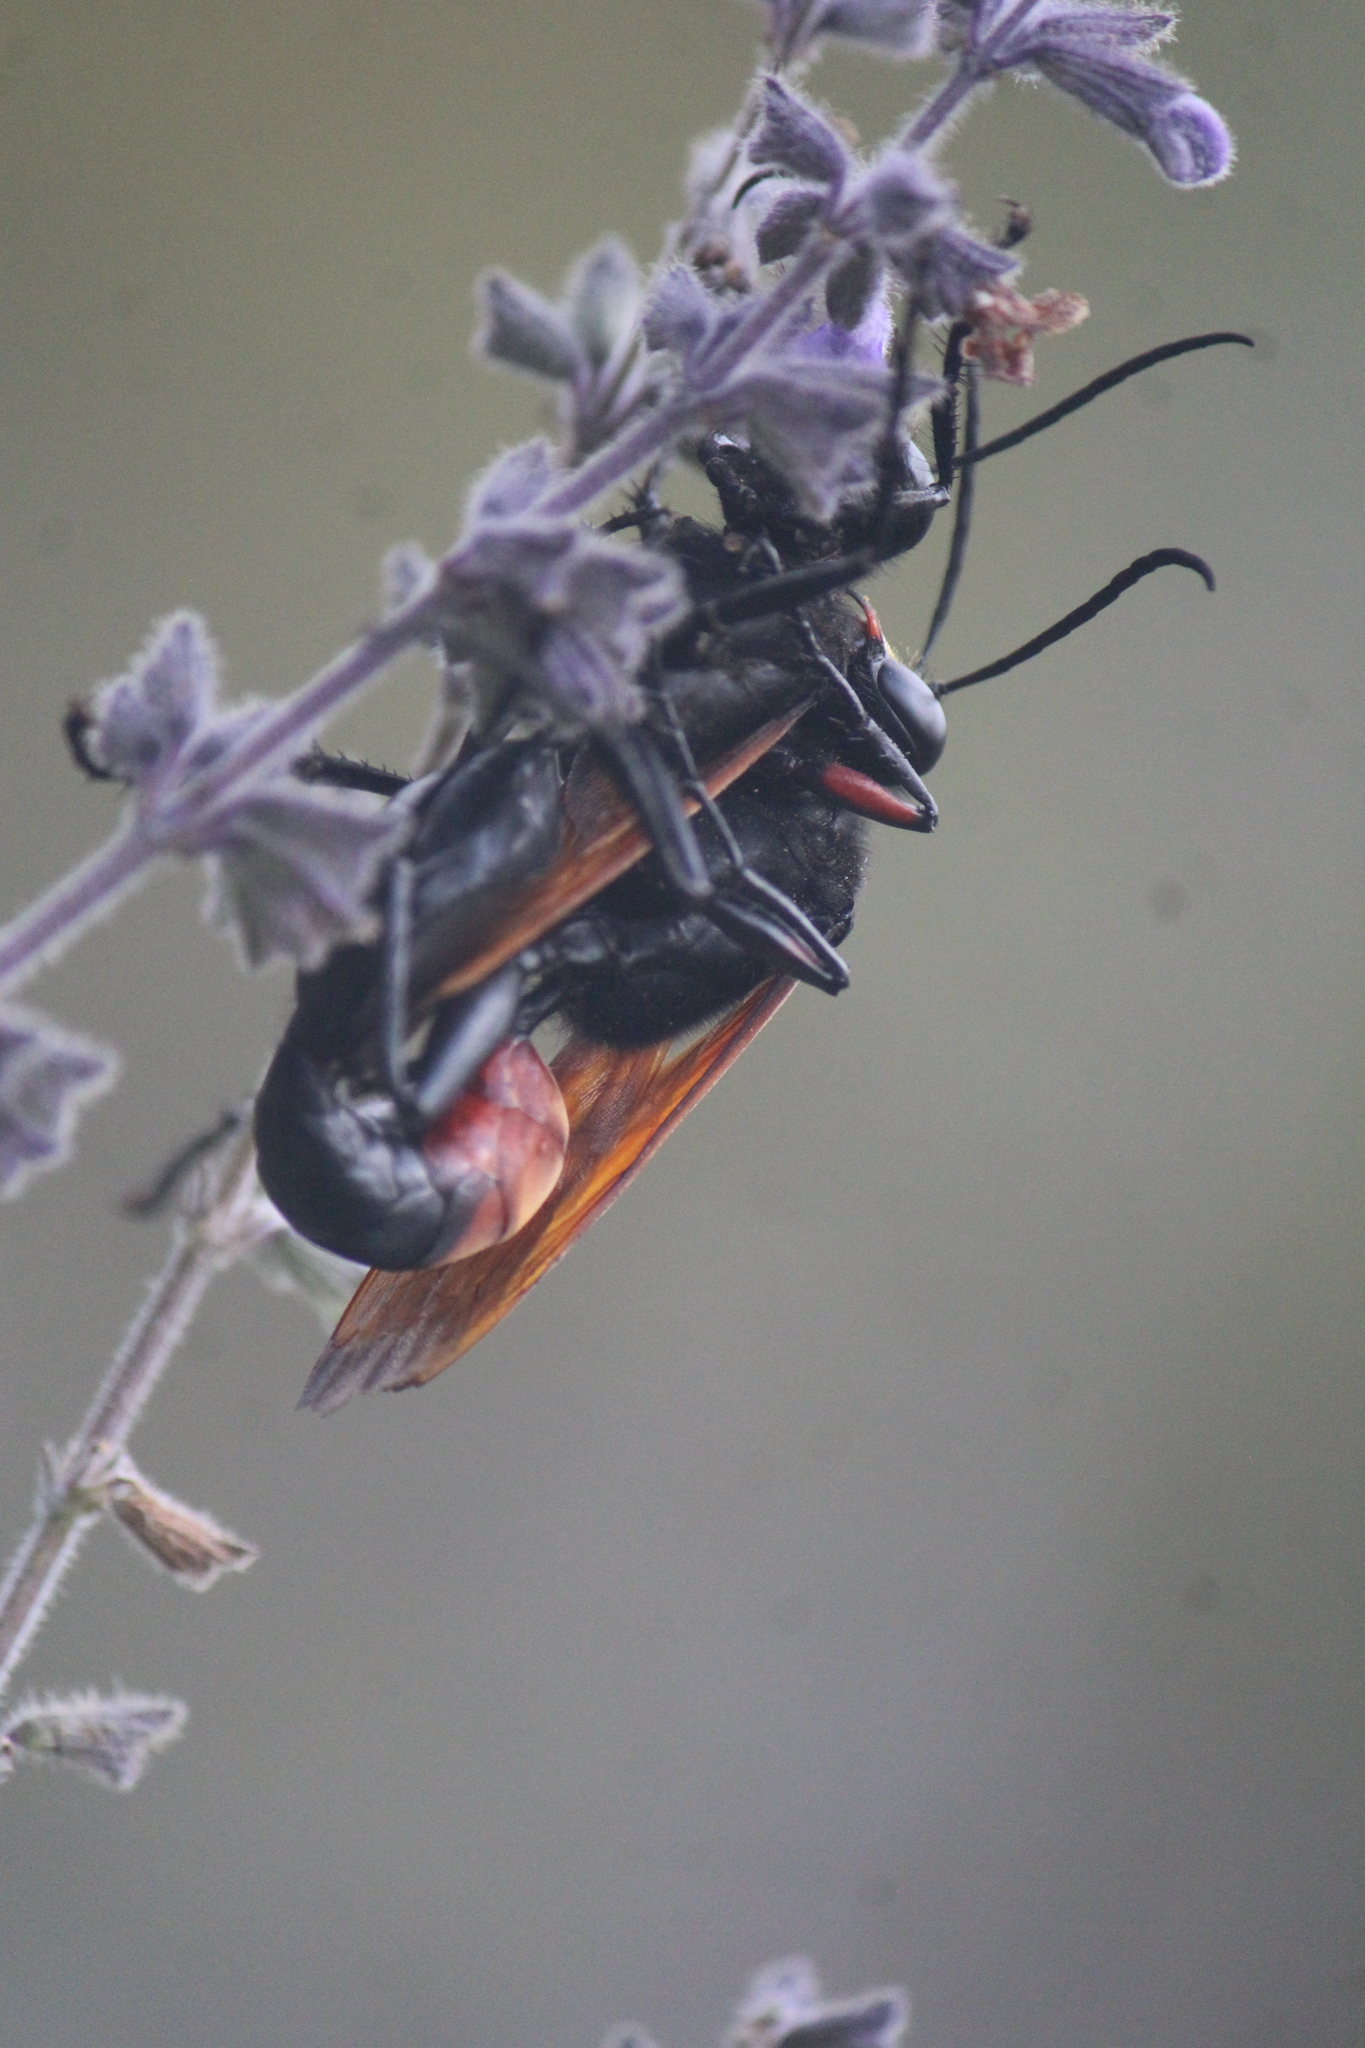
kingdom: Animalia
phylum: Arthropoda
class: Insecta
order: Hymenoptera
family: Sphecidae
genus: Sphex
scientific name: Sphex tepanecus
